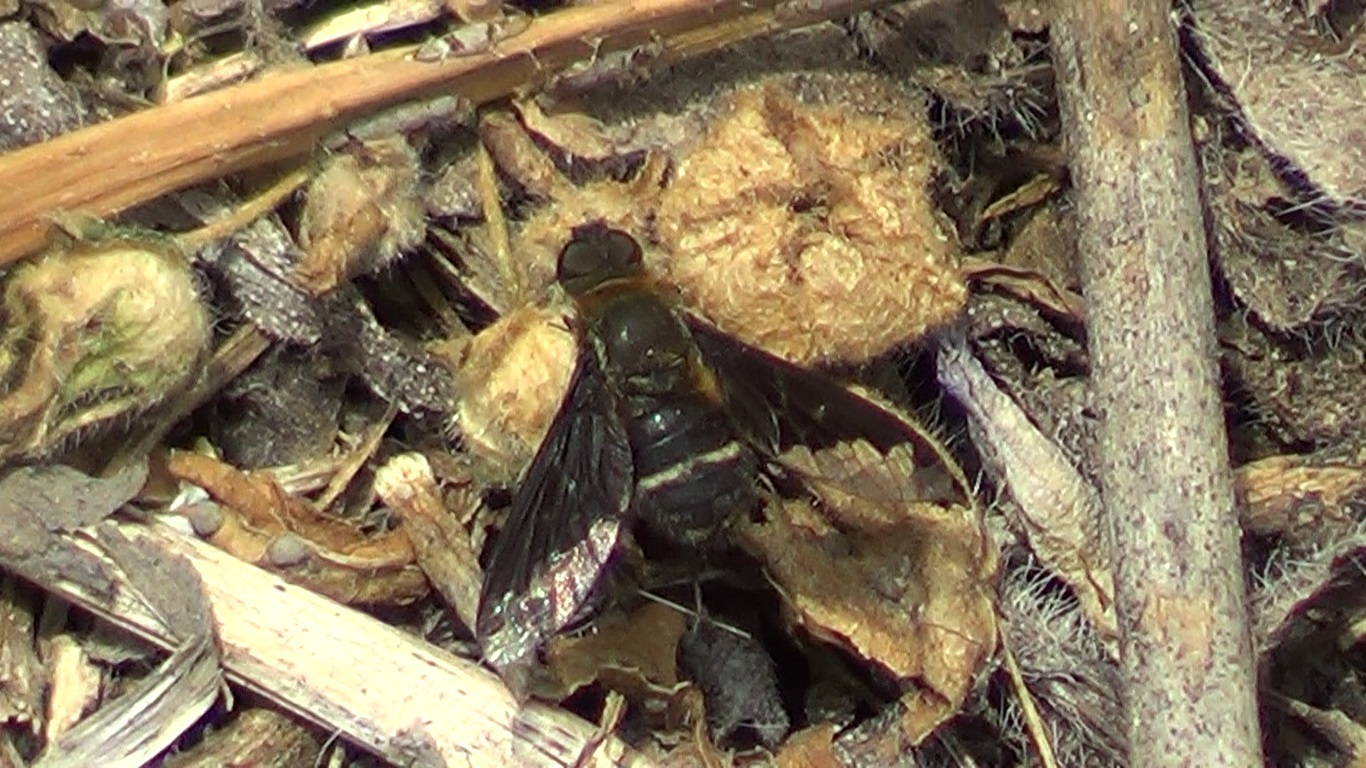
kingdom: Animalia
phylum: Arthropoda
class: Insecta
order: Diptera
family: Bombyliidae
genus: Hemipenthes
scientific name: Hemipenthes velutina
